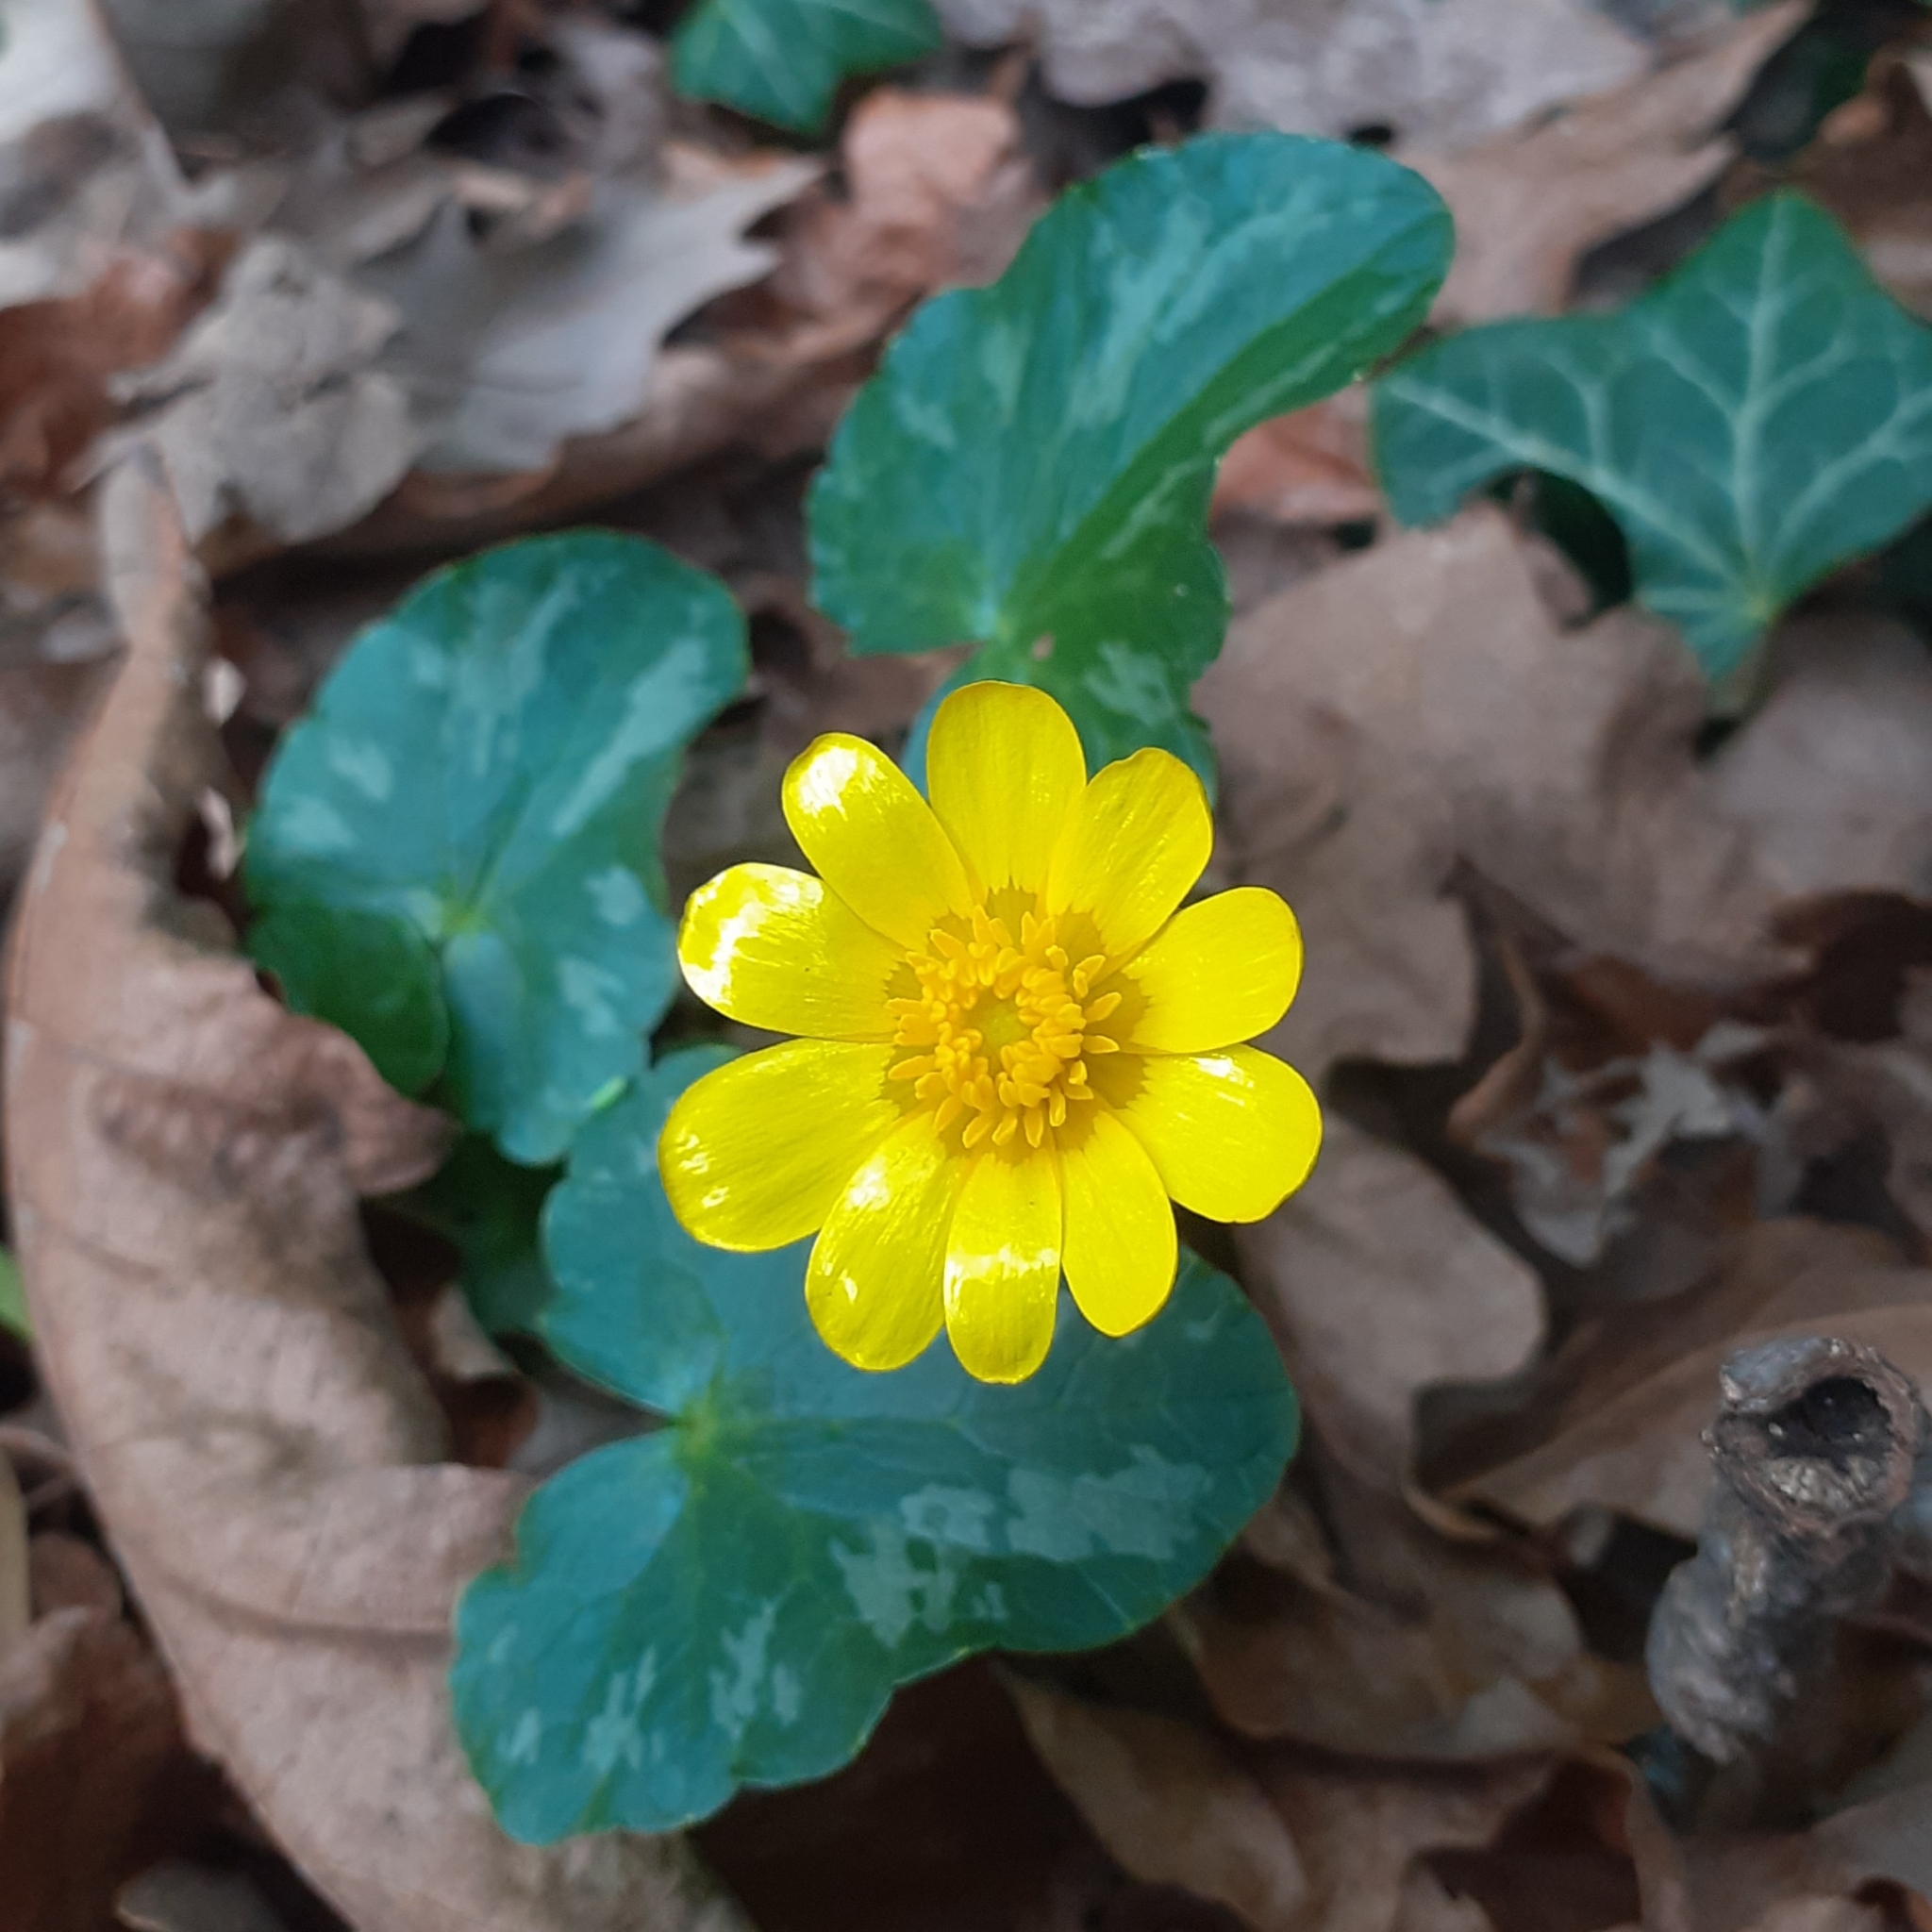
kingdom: Plantae
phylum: Tracheophyta
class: Magnoliopsida
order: Ranunculales
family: Ranunculaceae
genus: Ficaria
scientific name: Ficaria verna
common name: Lesser celandine
